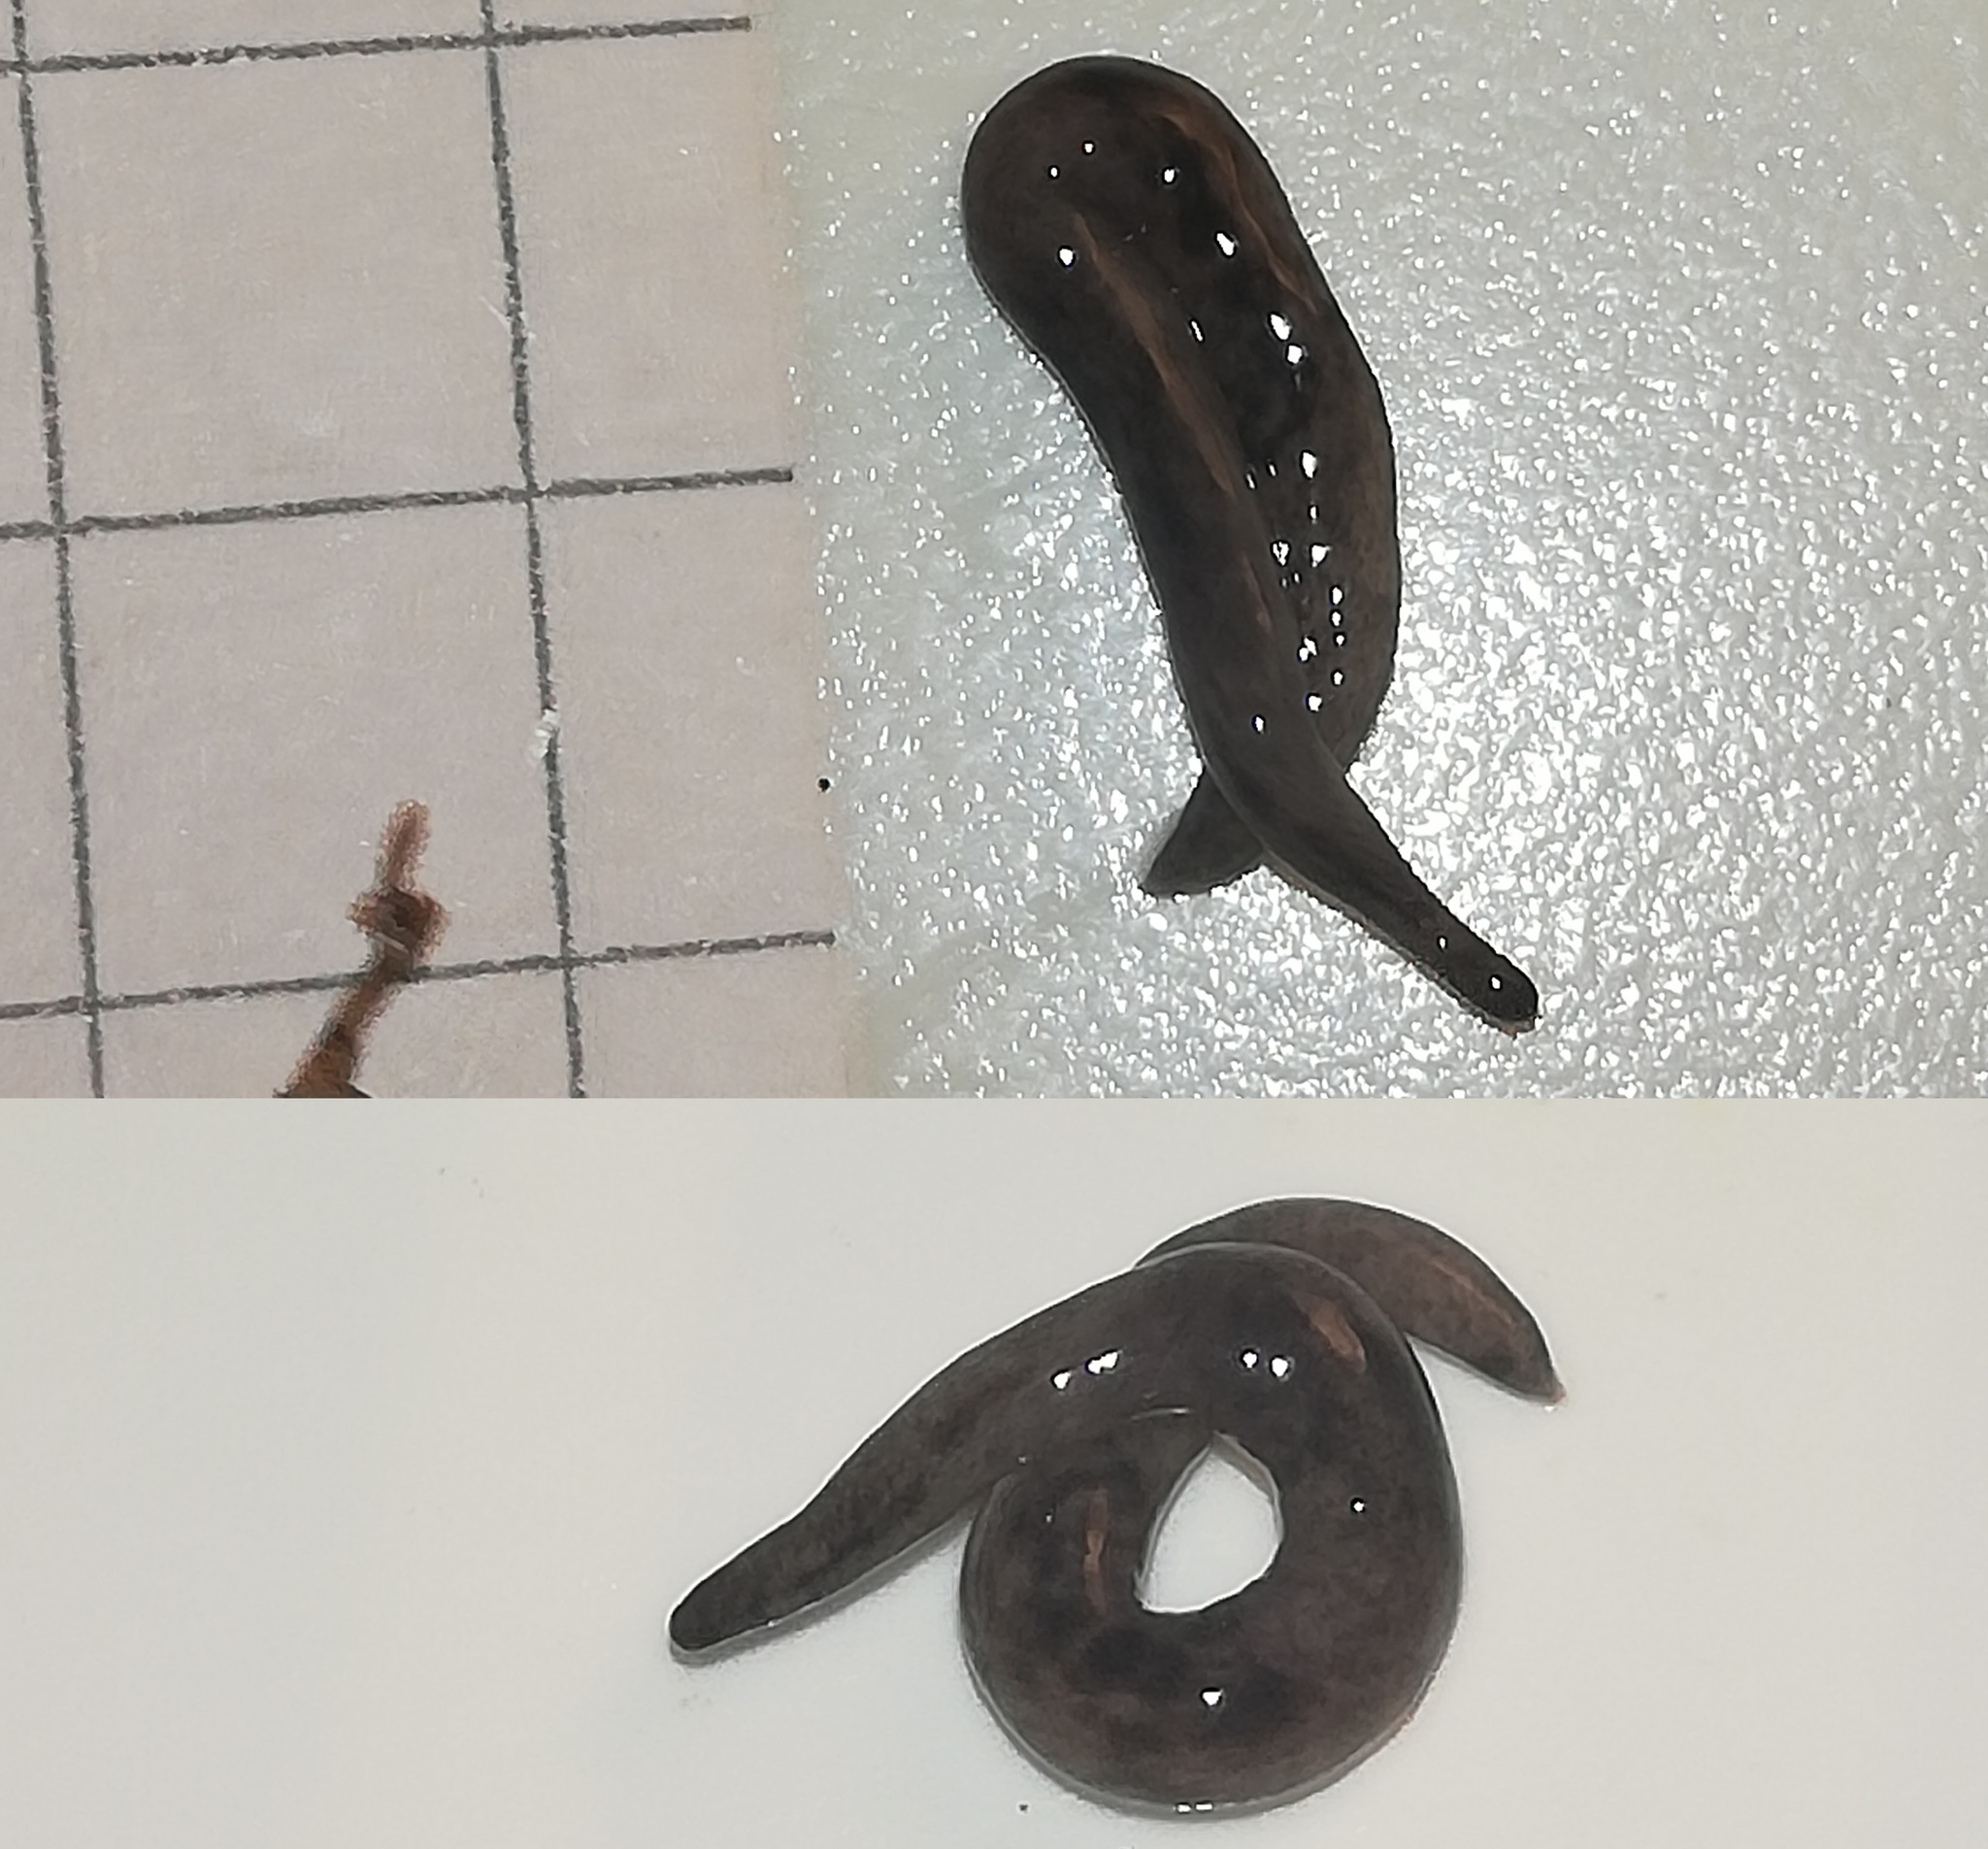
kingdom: Animalia
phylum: Platyhelminthes
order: Tricladida
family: Geoplanidae
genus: Microplana
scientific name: Microplana terrestris
